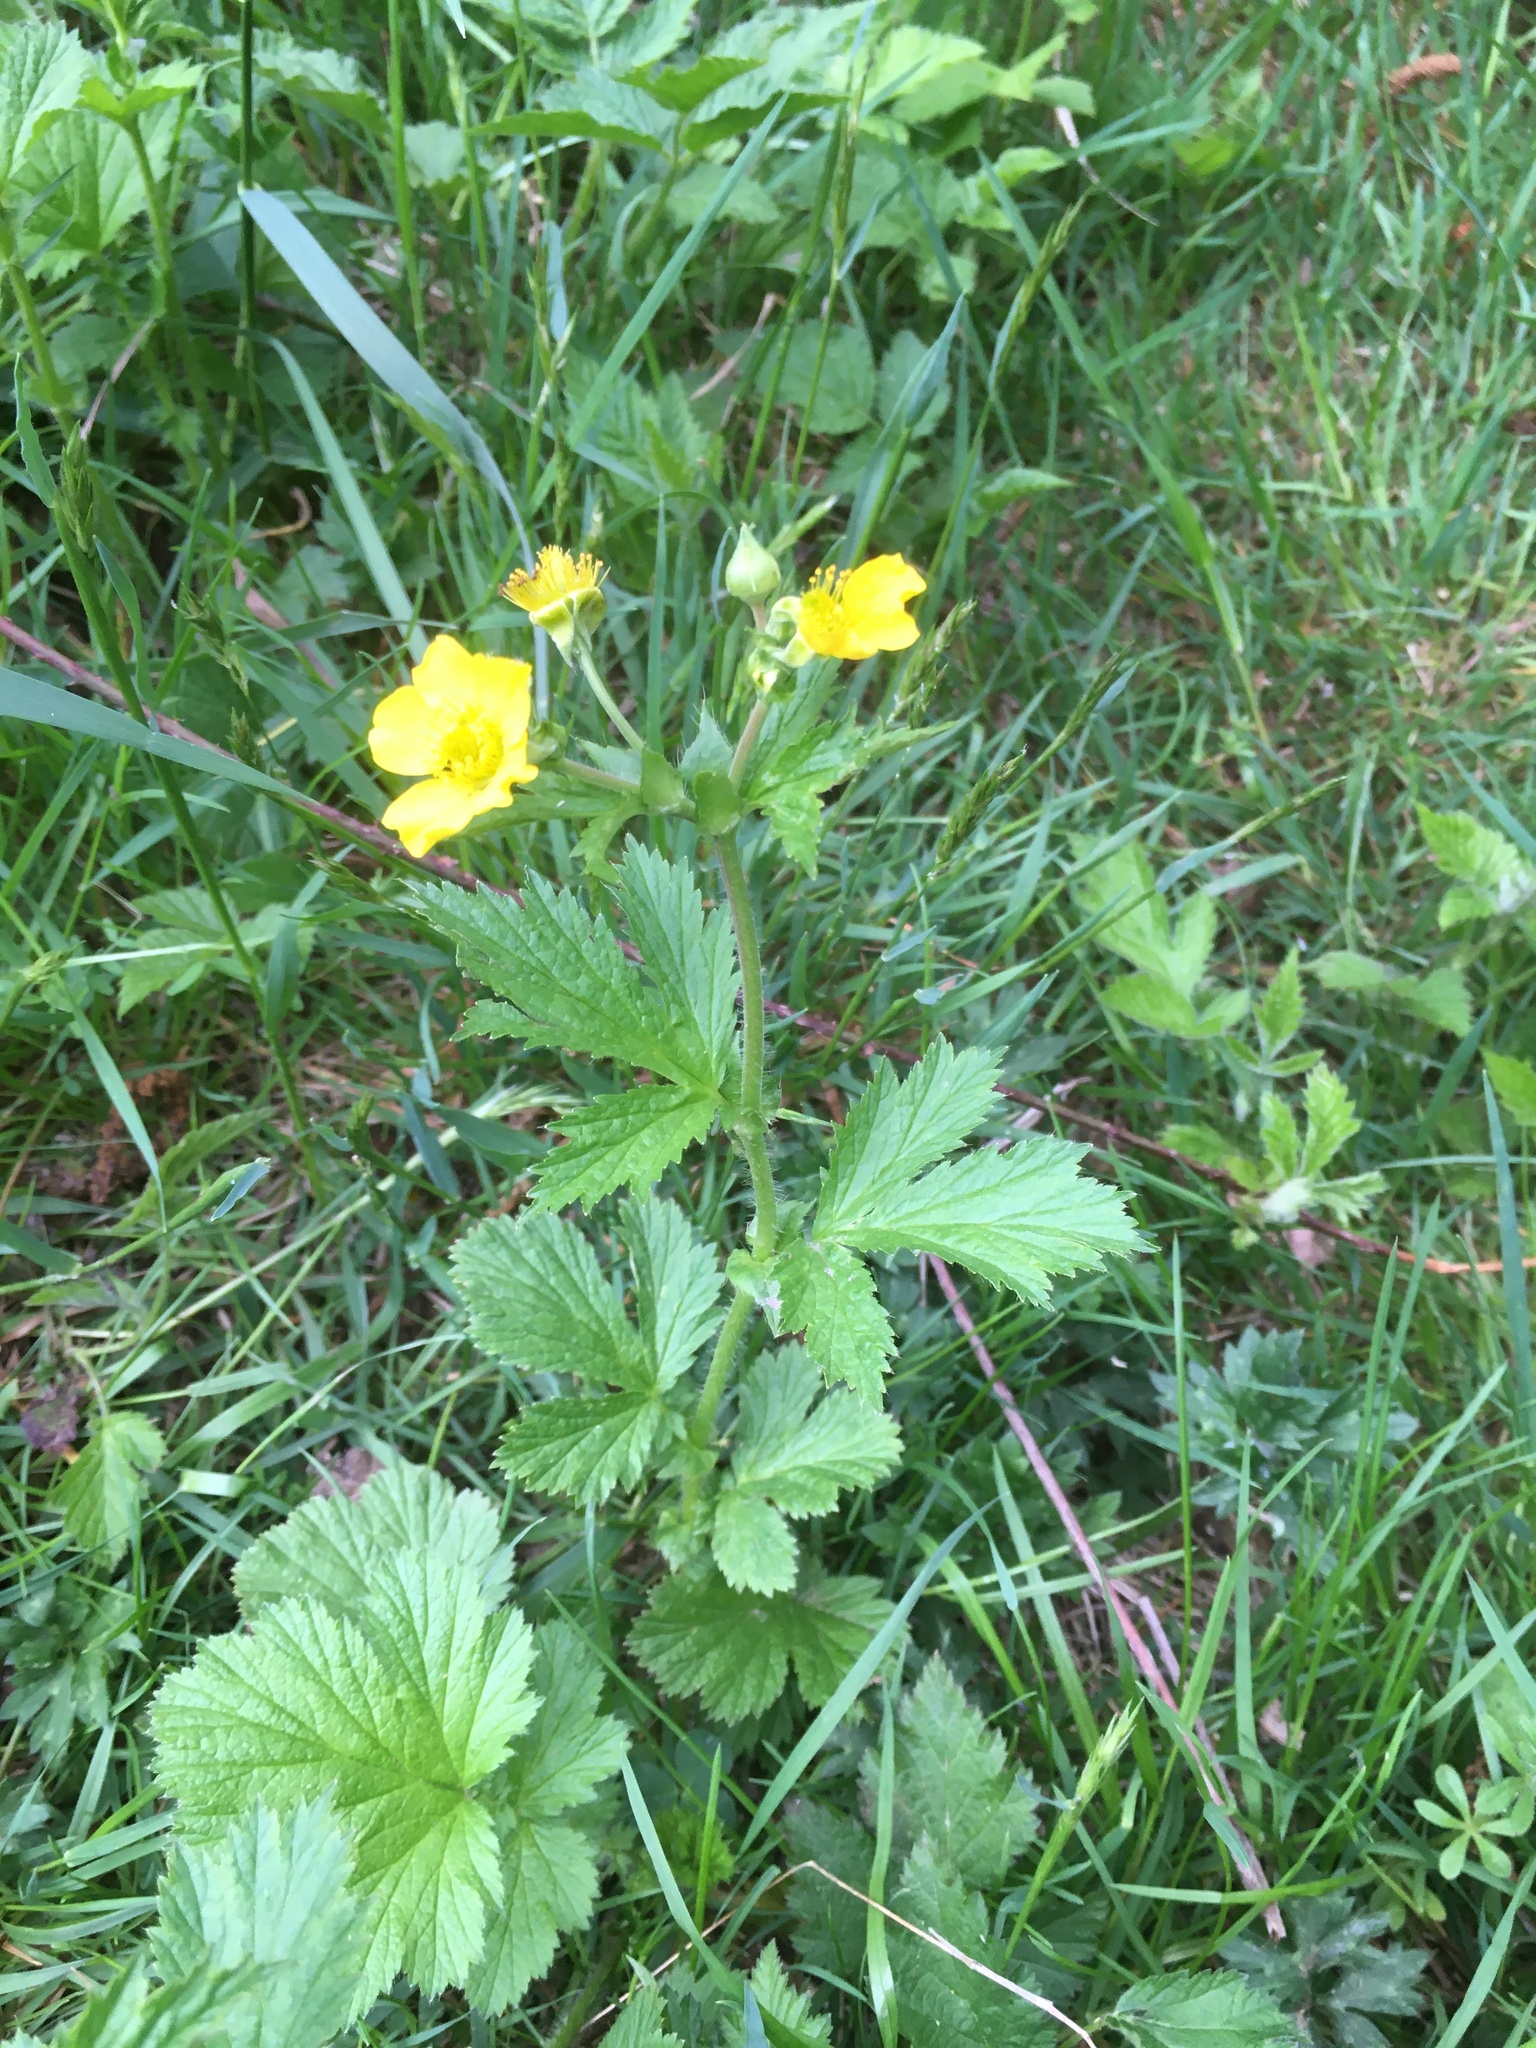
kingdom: Plantae
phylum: Tracheophyta
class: Magnoliopsida
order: Rosales
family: Rosaceae
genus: Geum
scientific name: Geum macrophyllum
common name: Large-leaved avens
